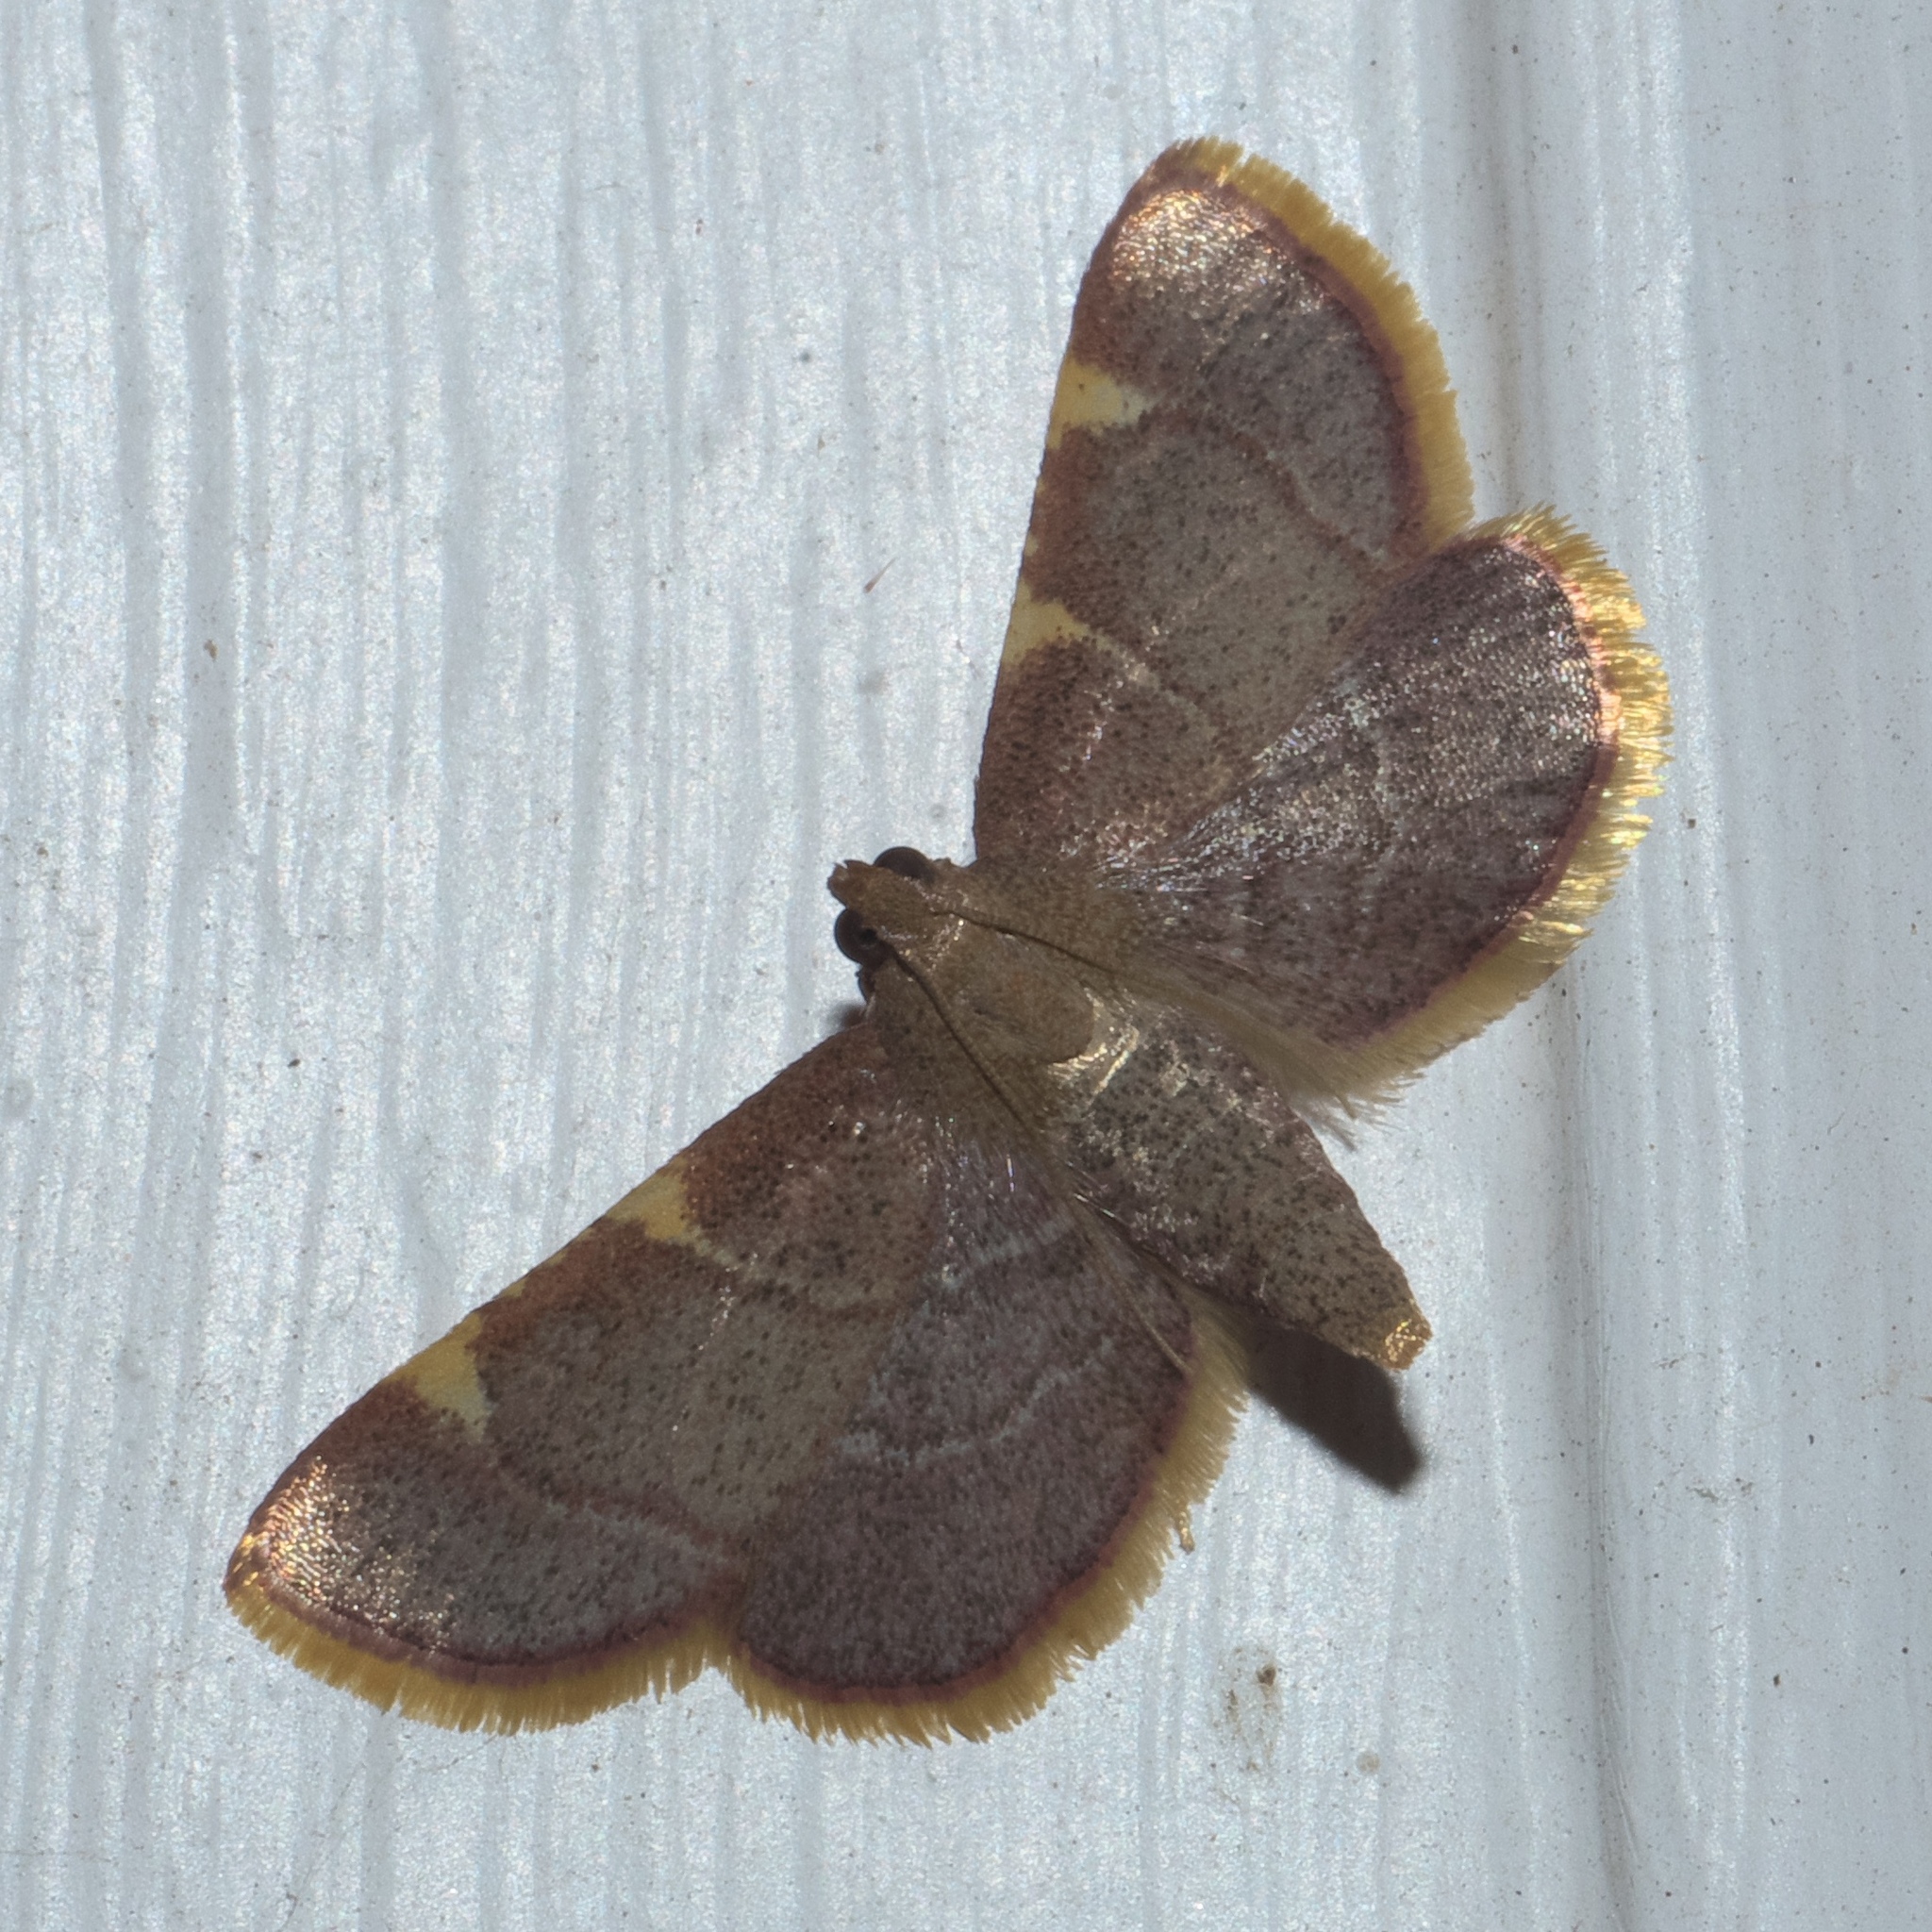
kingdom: Animalia
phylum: Arthropoda
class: Insecta
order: Lepidoptera
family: Pyralidae
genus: Hypsopygia
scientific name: Hypsopygia olinalis
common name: Yellow-fringed dolichomia moth
